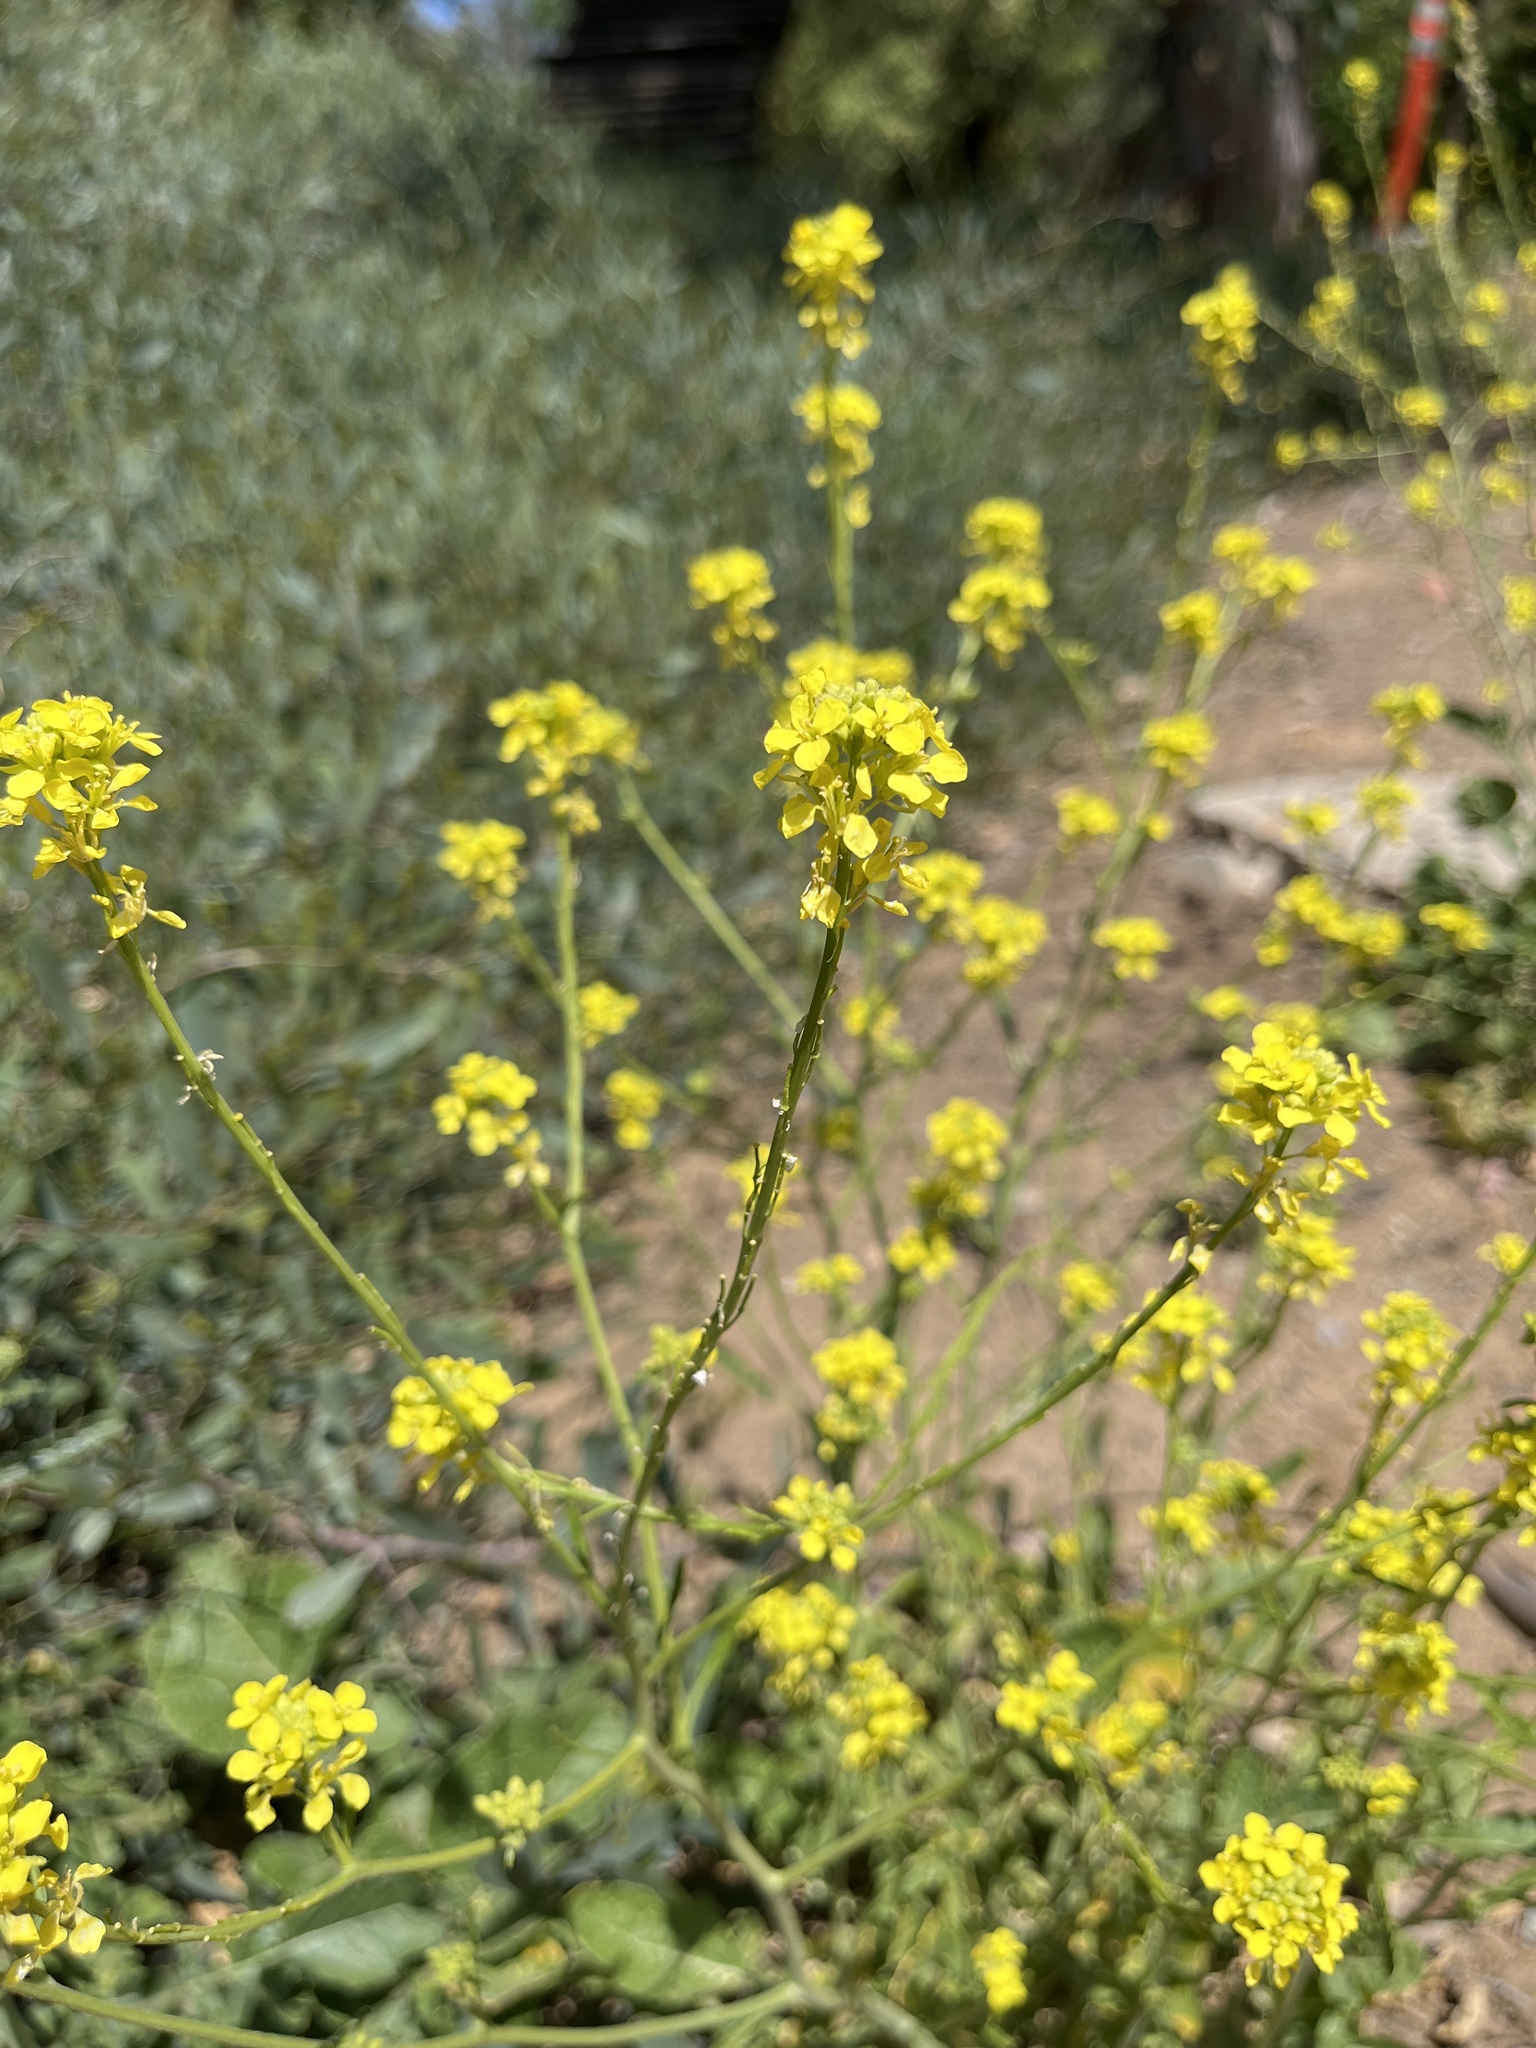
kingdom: Plantae
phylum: Tracheophyta
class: Magnoliopsida
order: Brassicales
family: Brassicaceae
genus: Hirschfeldia
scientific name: Hirschfeldia incana
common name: Hoary mustard
